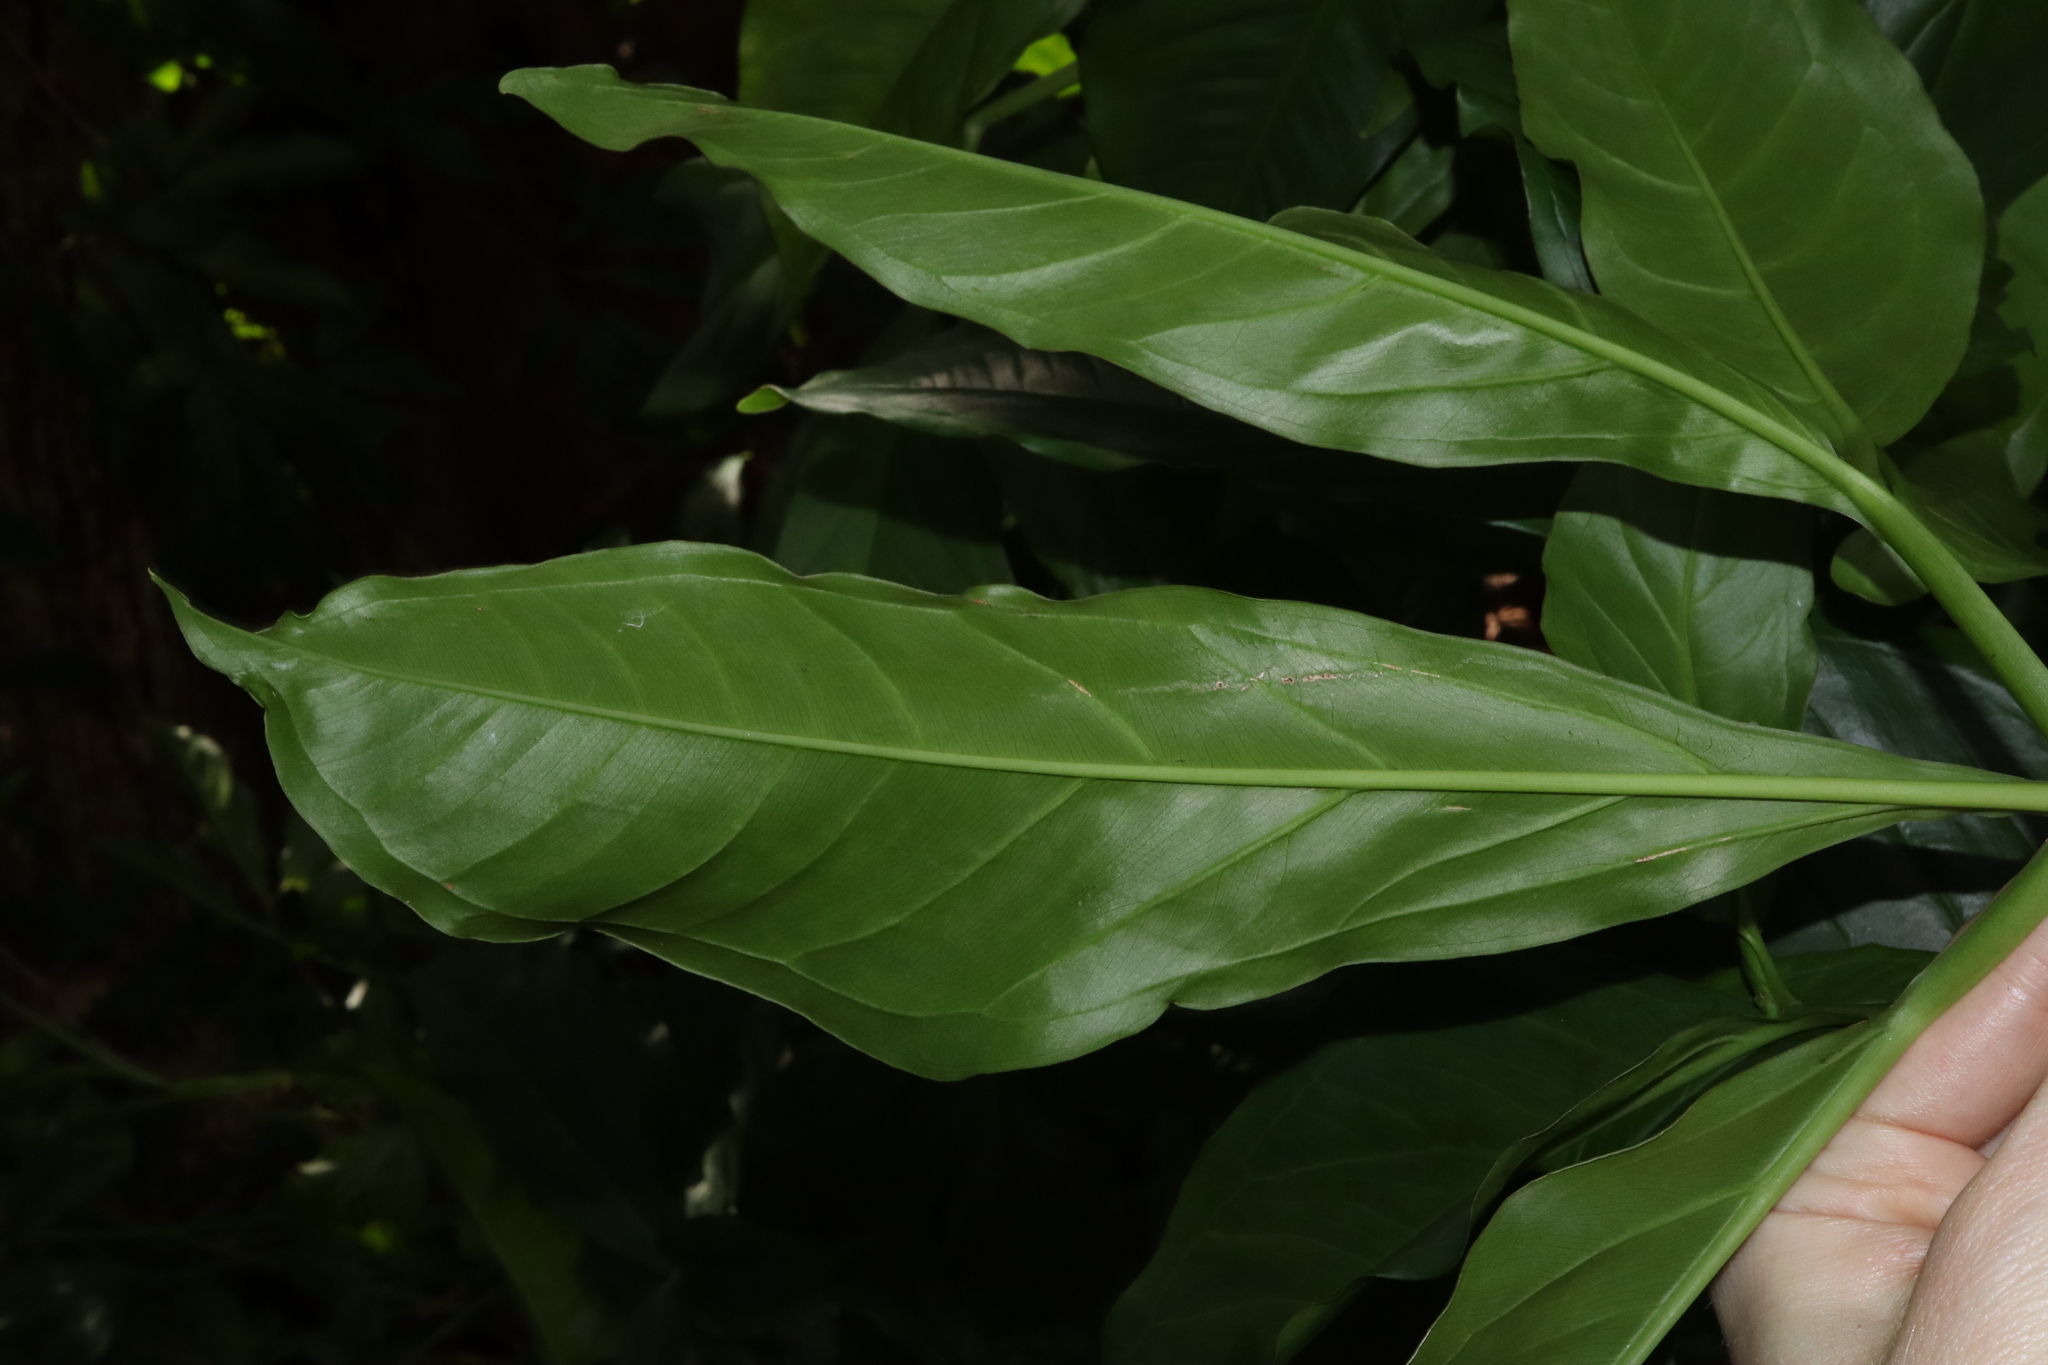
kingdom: Plantae
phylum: Tracheophyta
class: Liliopsida
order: Alismatales
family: Araceae
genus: Syngonium
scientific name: Syngonium podophyllum
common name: American evergreen
